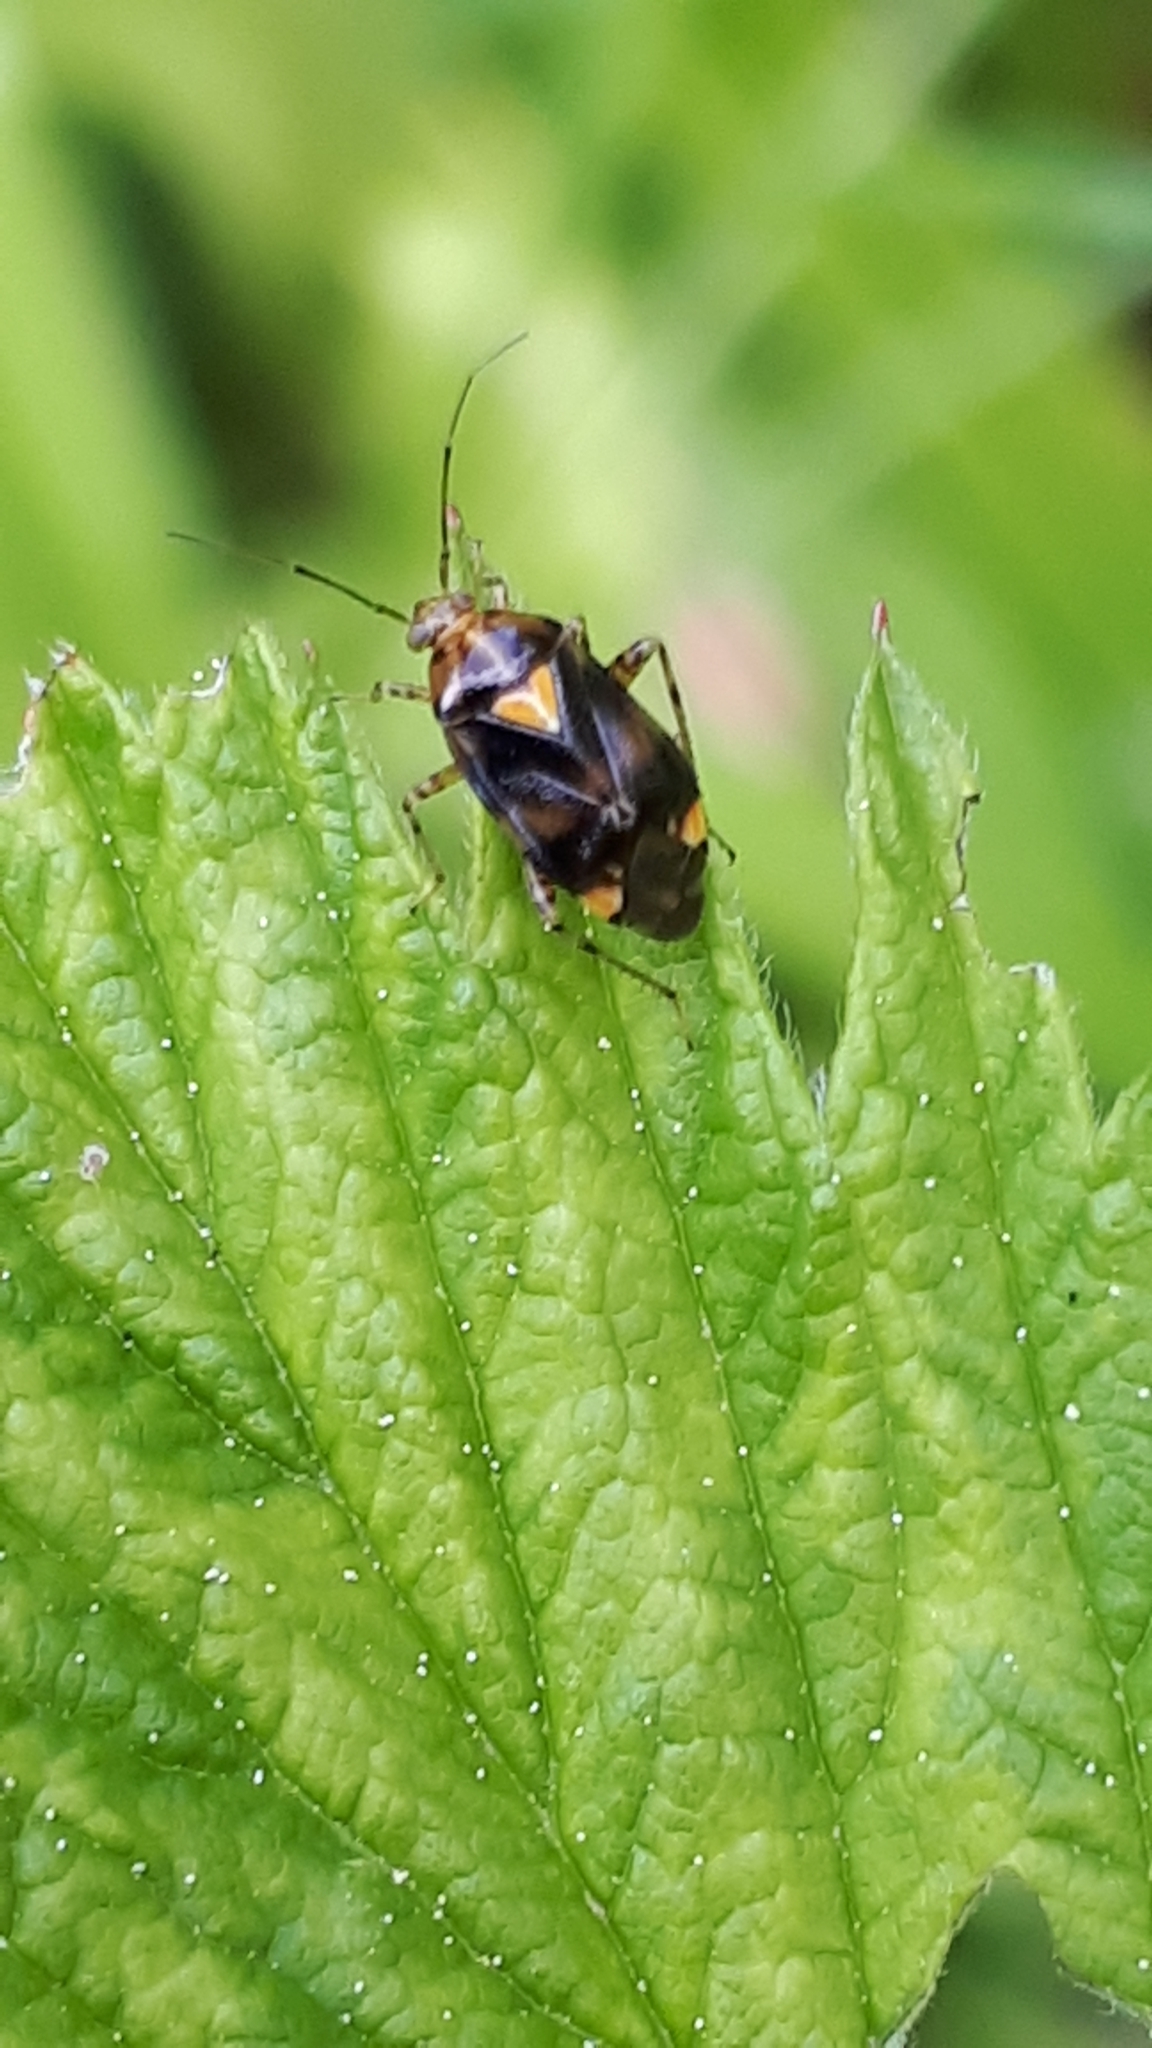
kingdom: Animalia
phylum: Arthropoda
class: Insecta
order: Hemiptera
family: Miridae
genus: Liocoris
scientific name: Liocoris tripustulatus
